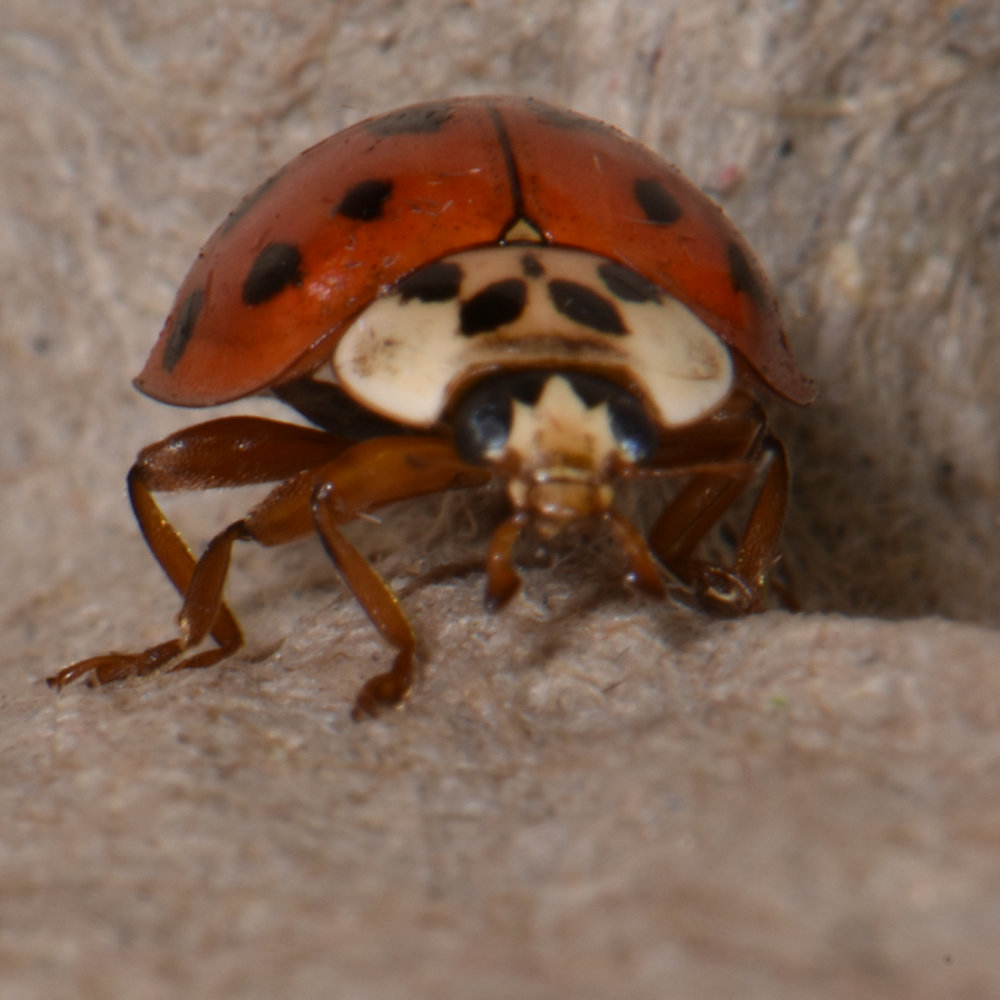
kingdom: Animalia
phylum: Arthropoda
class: Insecta
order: Coleoptera
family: Coccinellidae
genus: Harmonia
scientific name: Harmonia axyridis
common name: Harlequin ladybird
